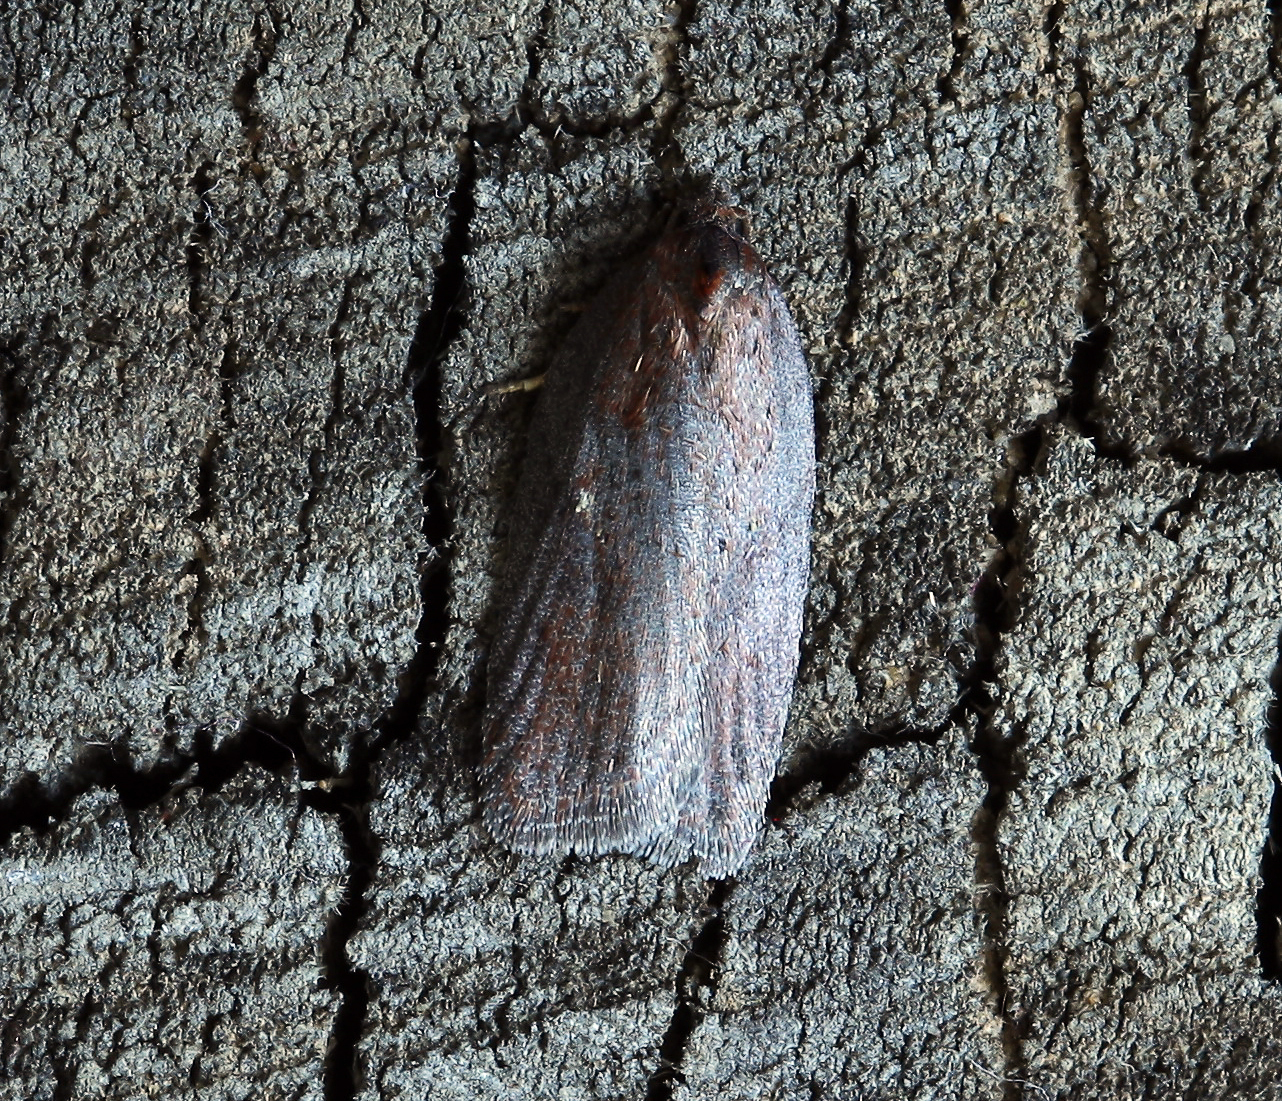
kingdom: Animalia
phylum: Arthropoda
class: Insecta
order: Lepidoptera
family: Tortricidae
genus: Acleris
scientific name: Acleris lipsiana
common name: Northern button
